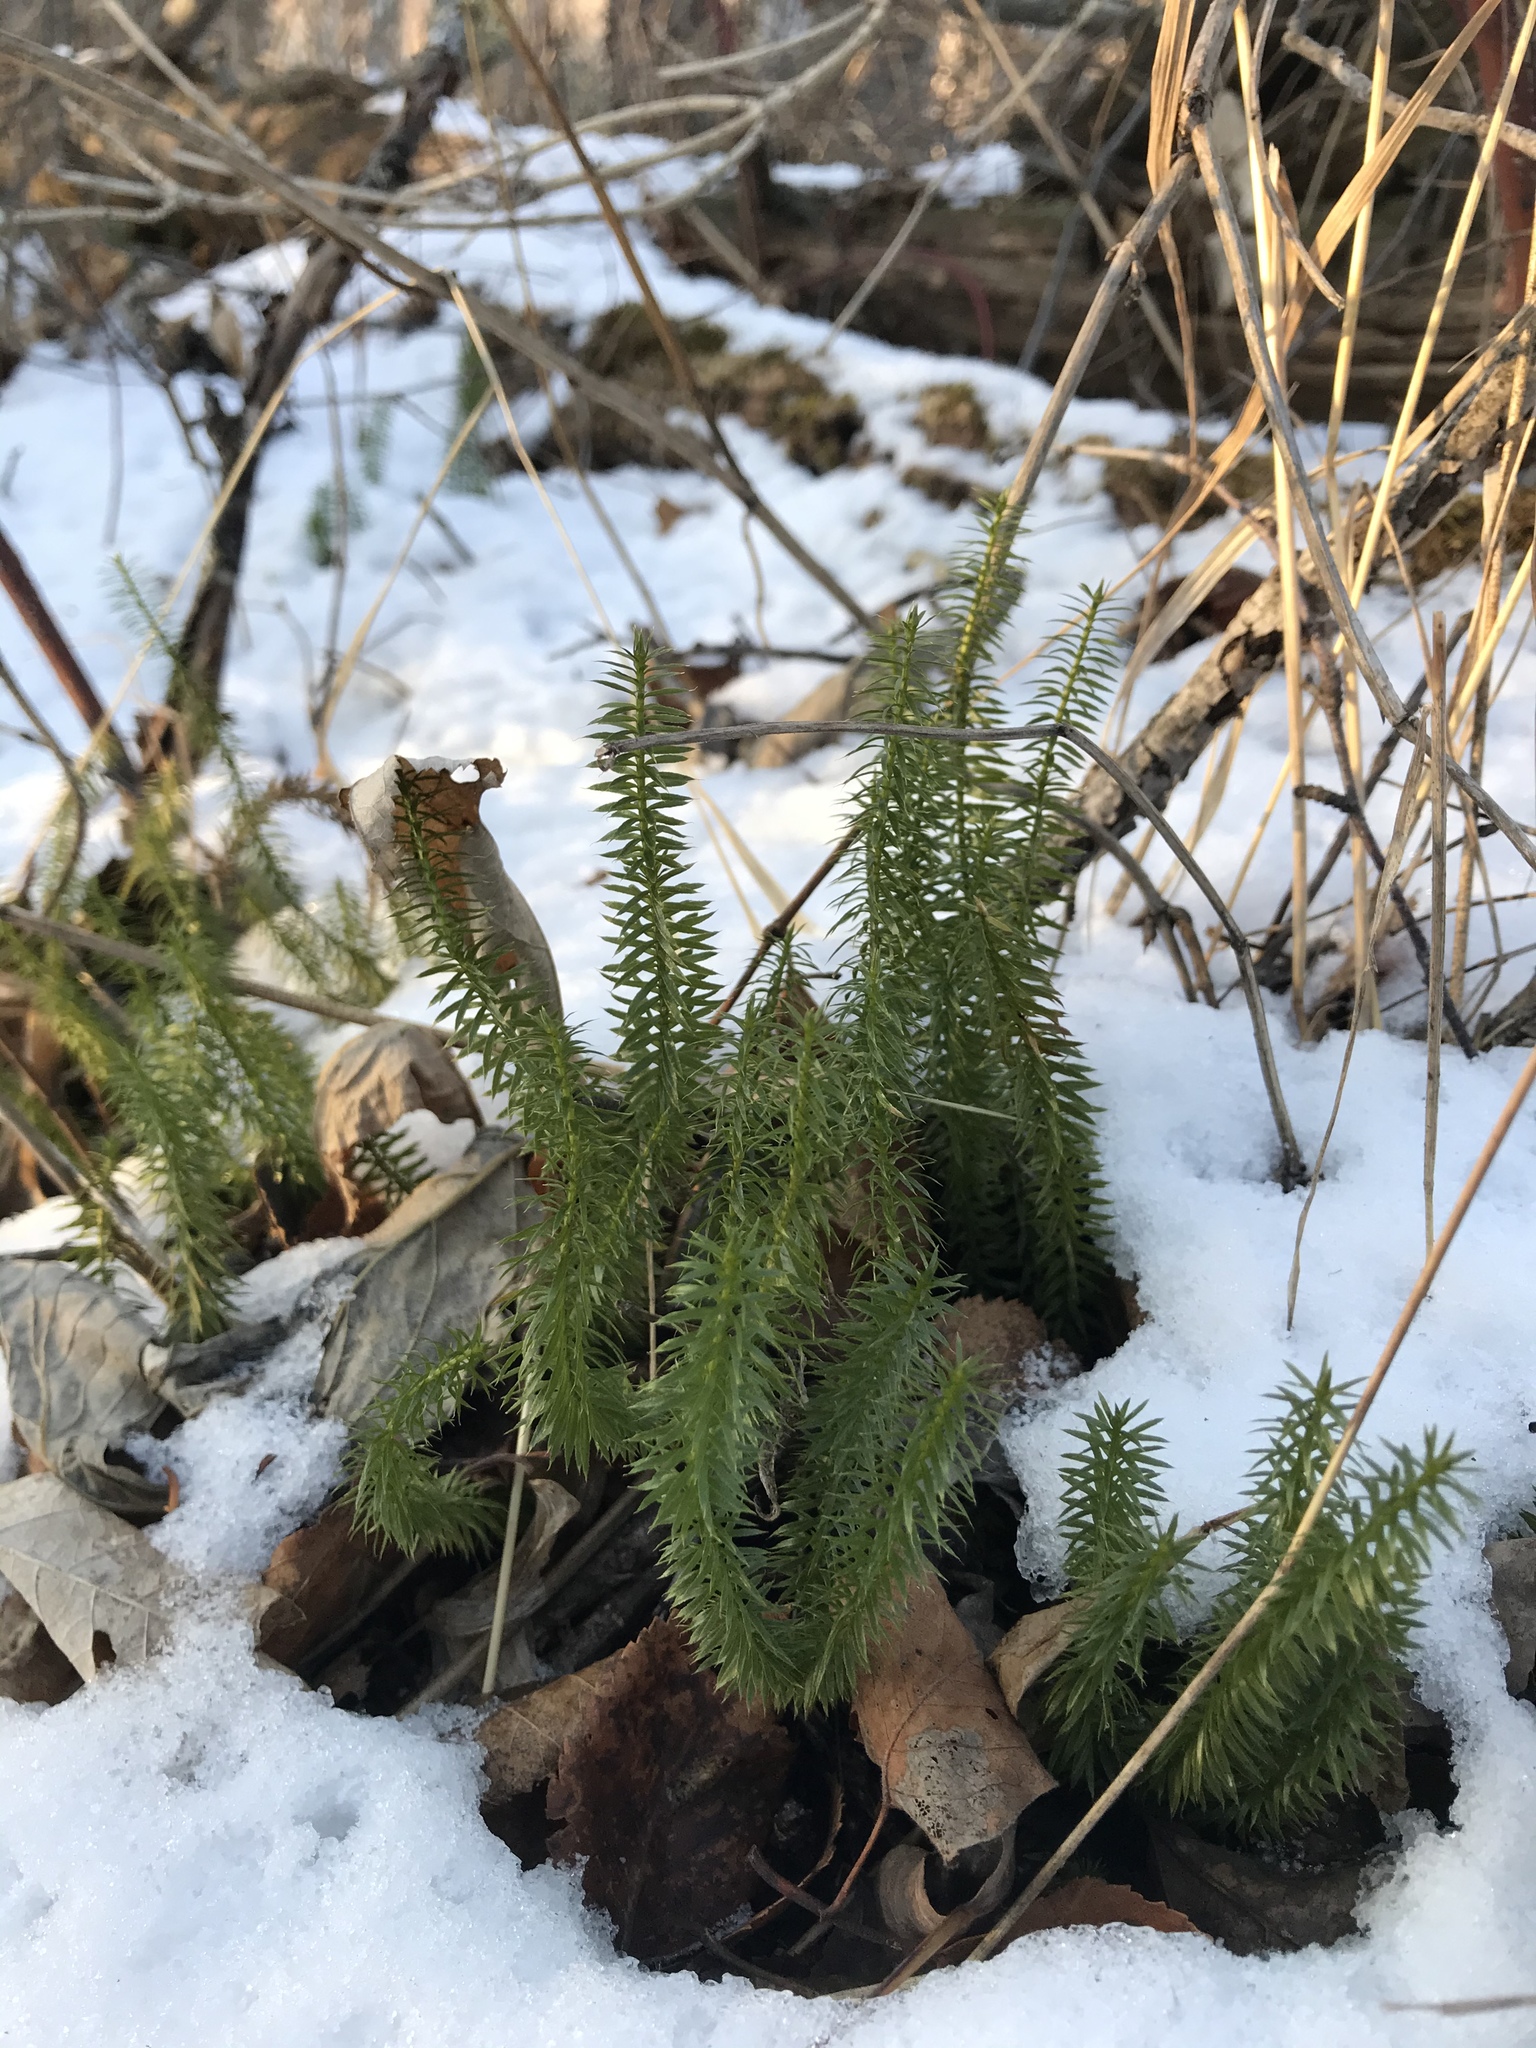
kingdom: Plantae
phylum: Tracheophyta
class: Lycopodiopsida
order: Lycopodiales
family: Lycopodiaceae
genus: Spinulum
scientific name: Spinulum annotinum
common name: Interrupted club-moss
